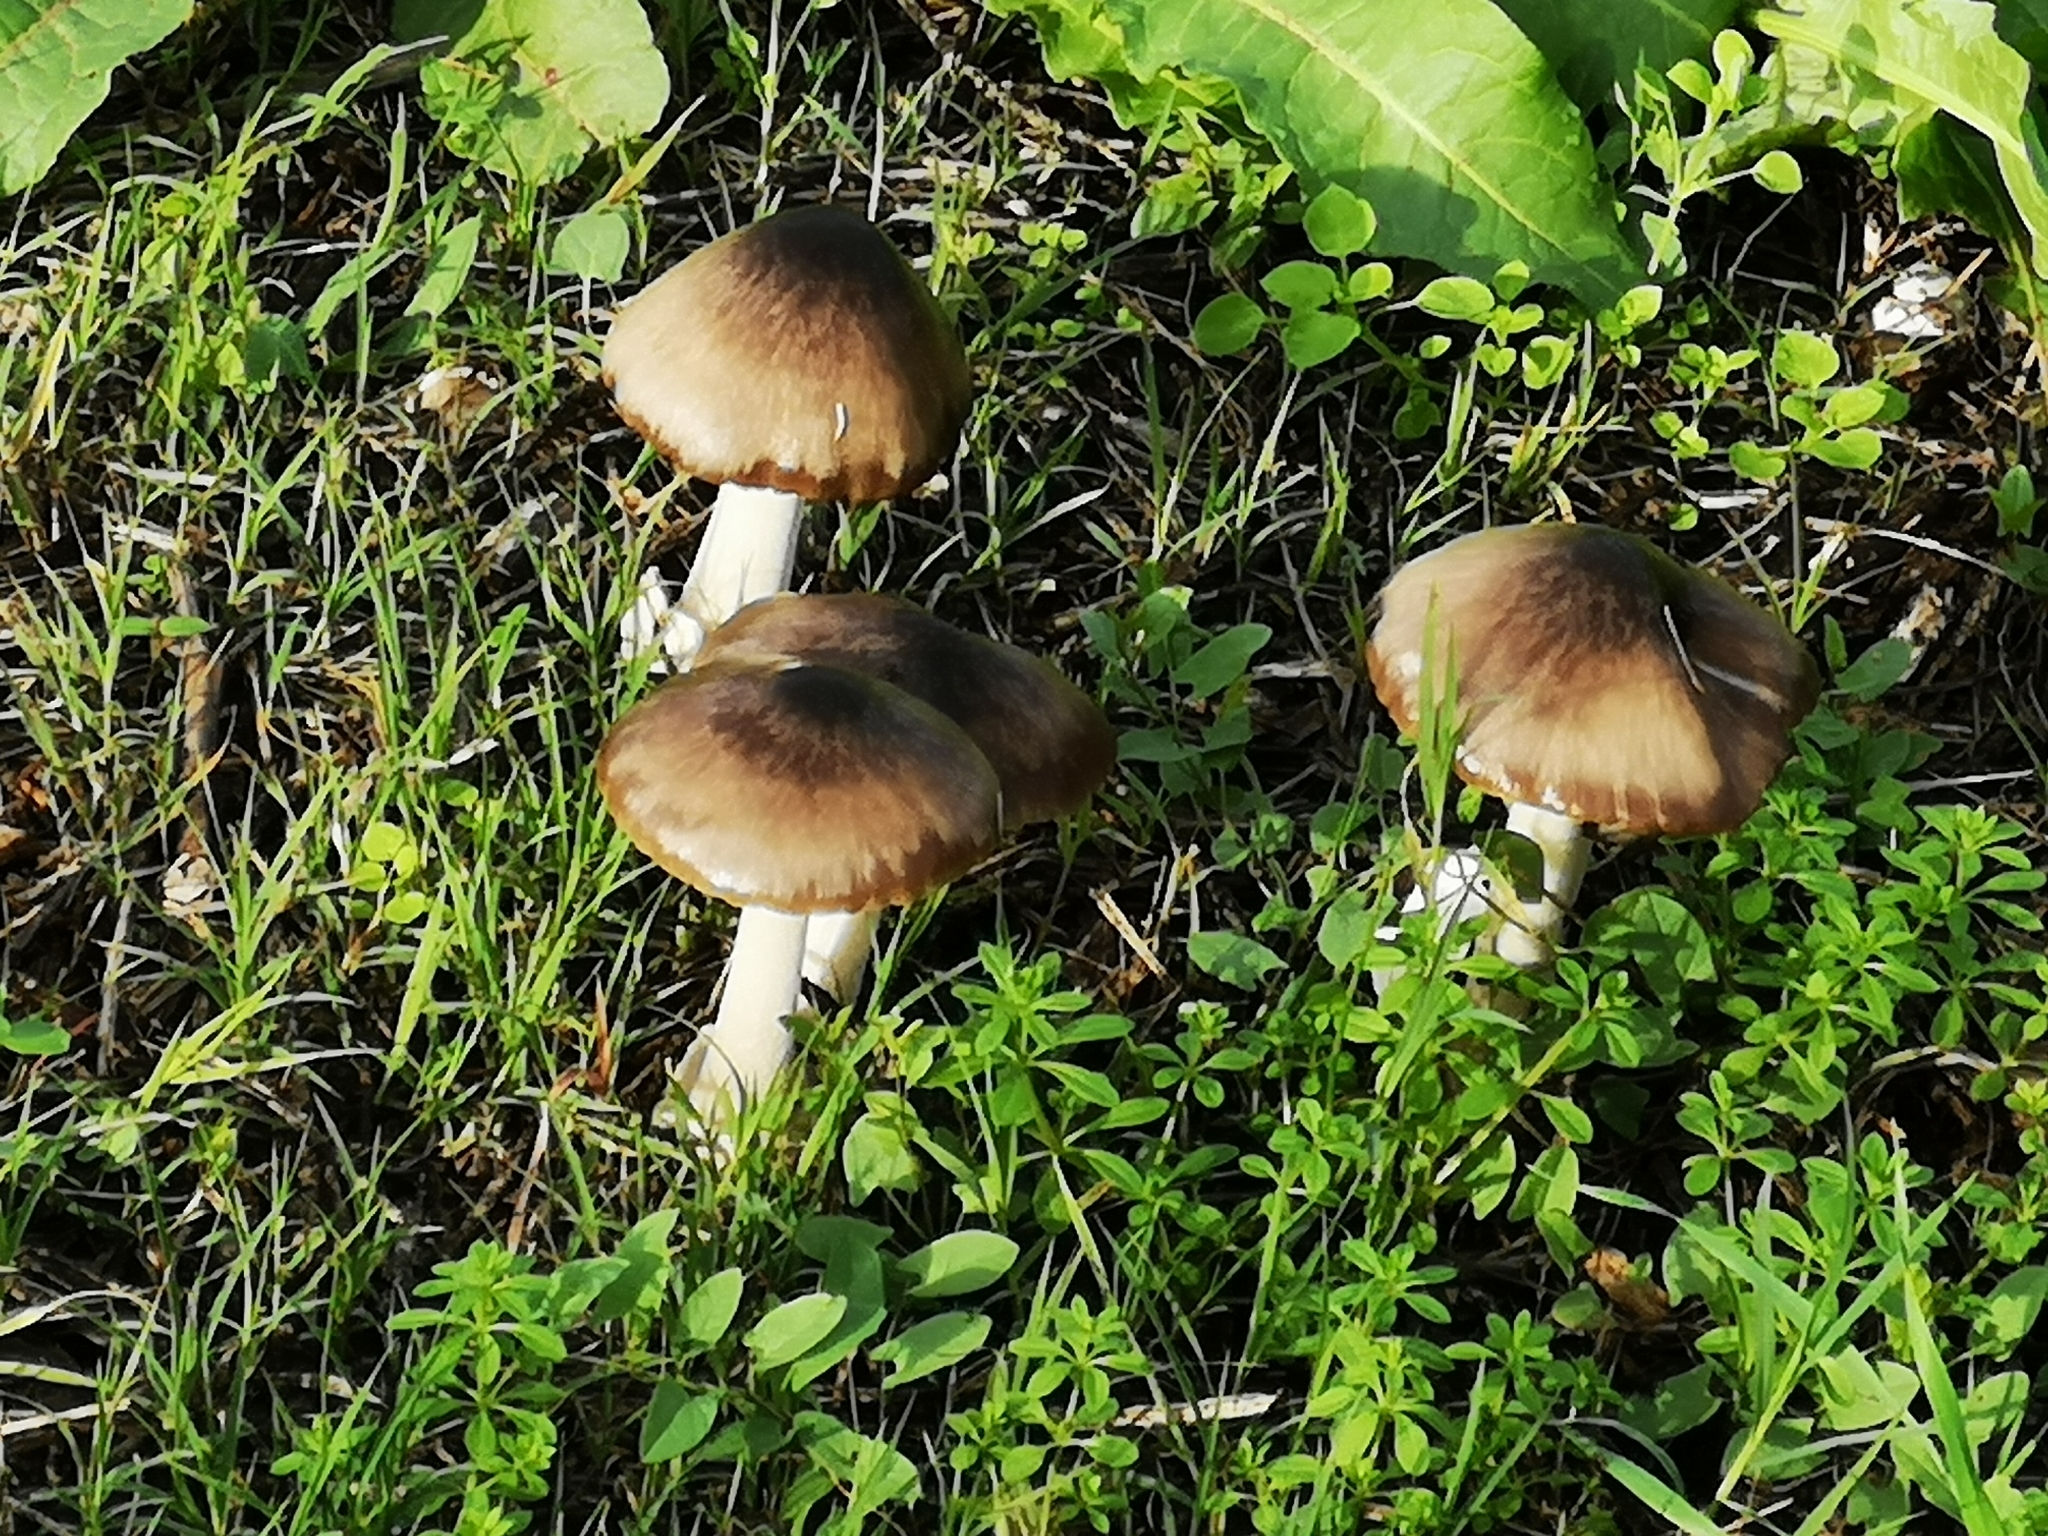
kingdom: Fungi
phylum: Basidiomycota
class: Agaricomycetes
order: Agaricales
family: Pluteaceae
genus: Volvopluteus
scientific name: Volvopluteus gloiocephalus
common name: Stubble rosegill
